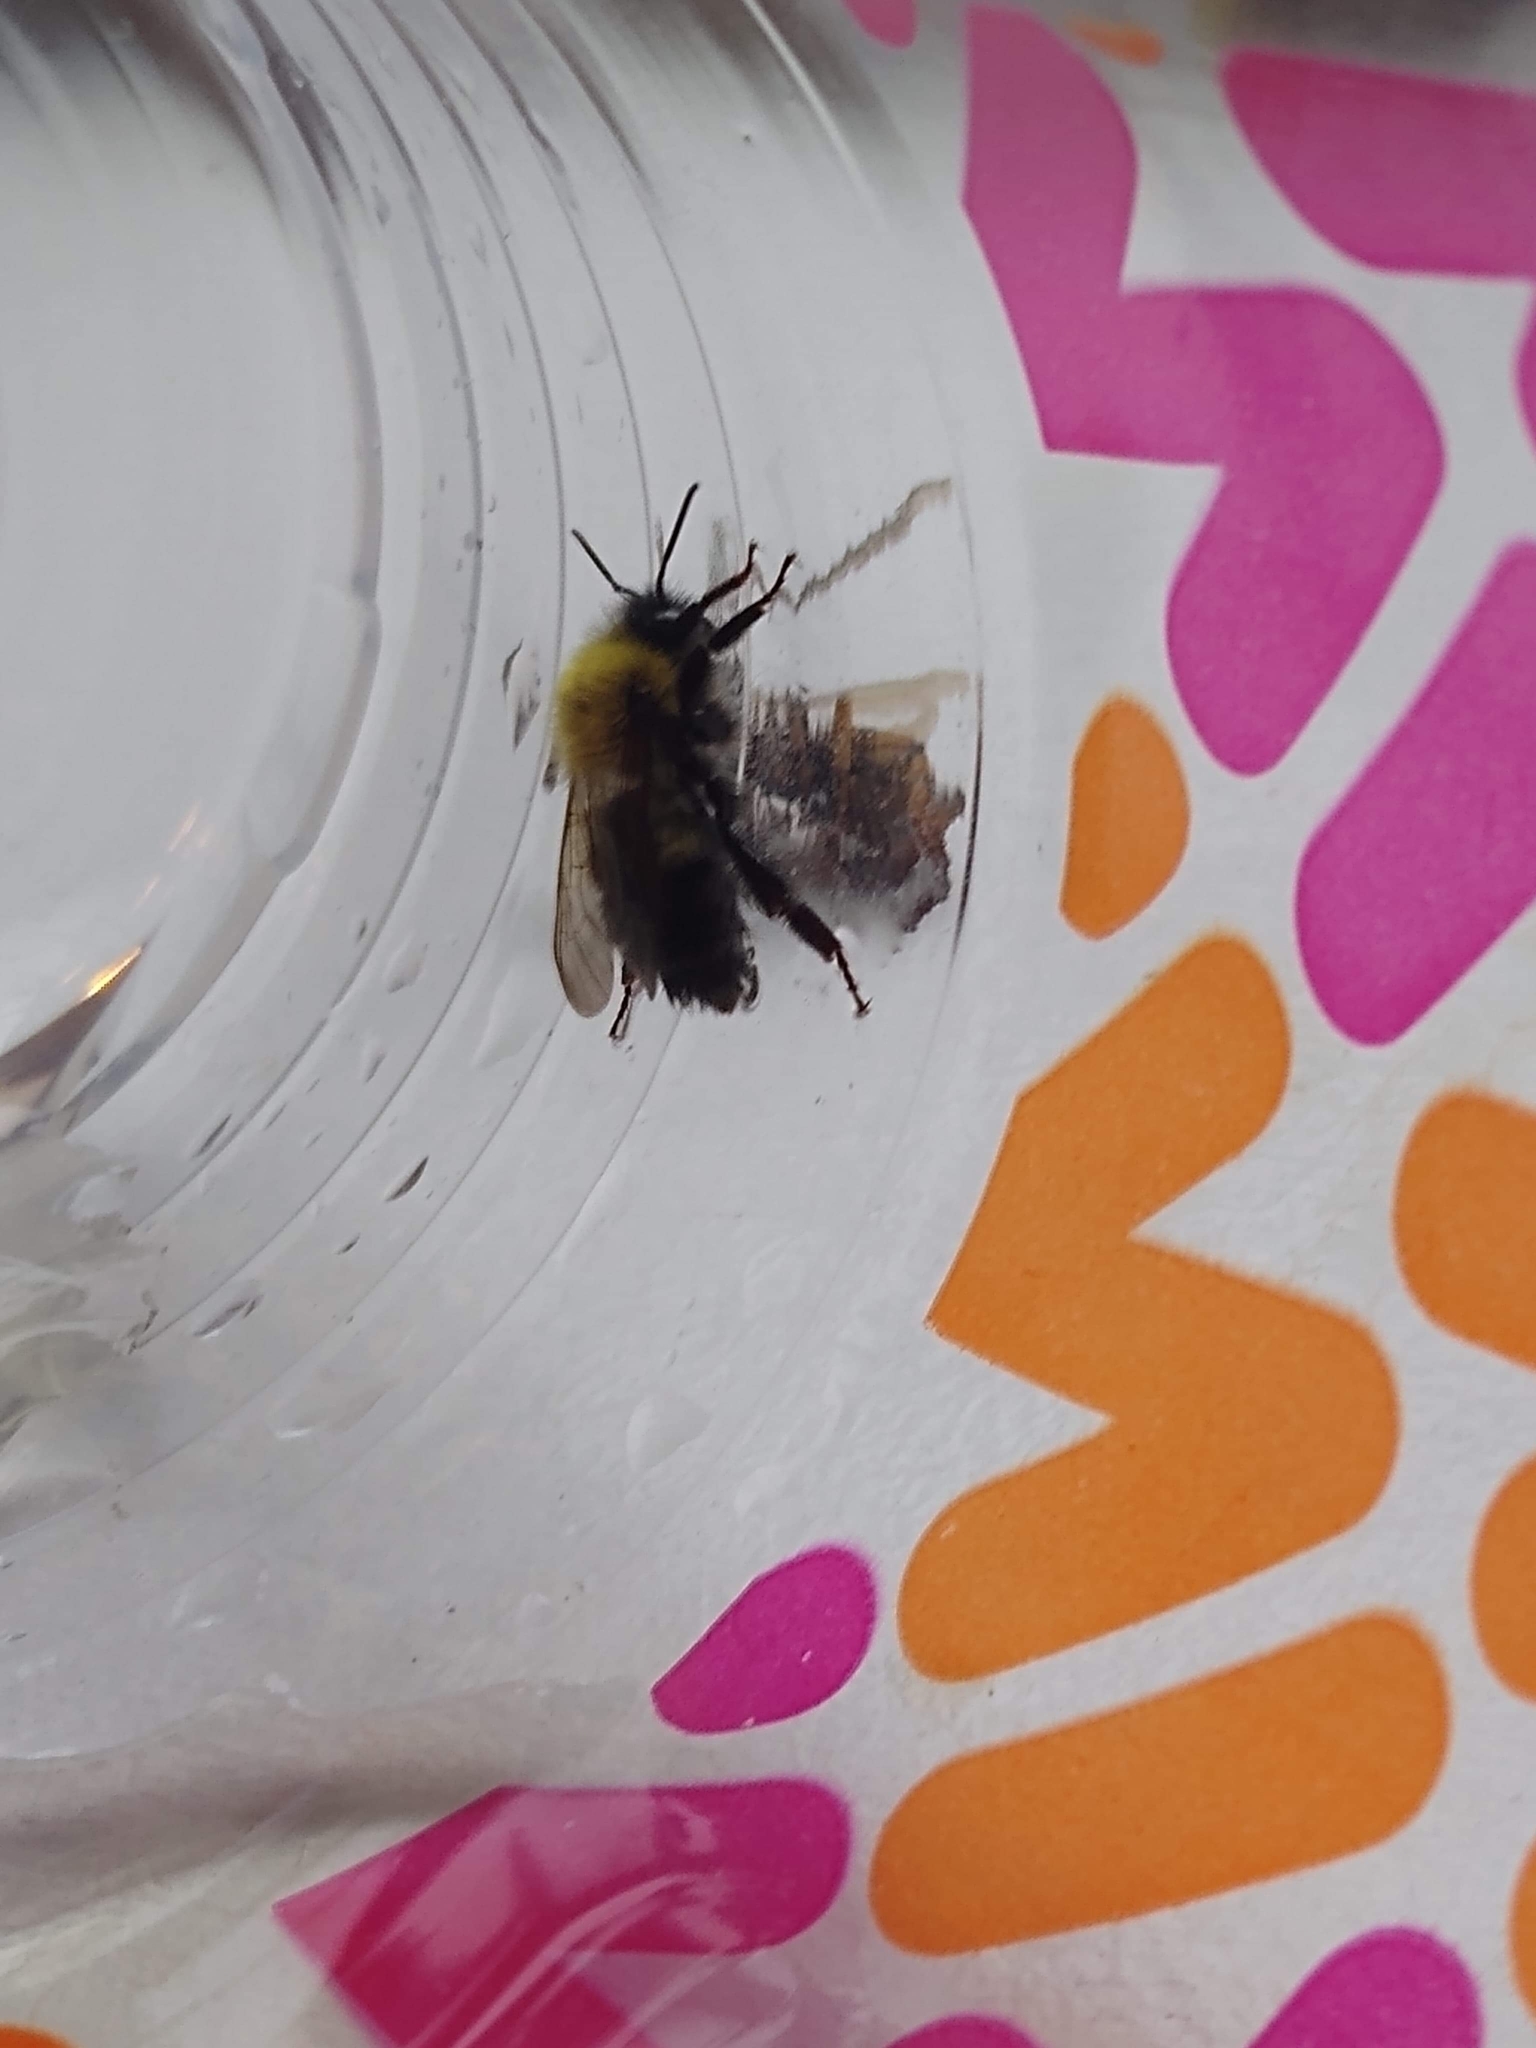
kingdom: Animalia
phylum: Arthropoda
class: Insecta
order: Hymenoptera
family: Apidae
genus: Bombus
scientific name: Bombus perplexus
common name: Confusing bumble bee
